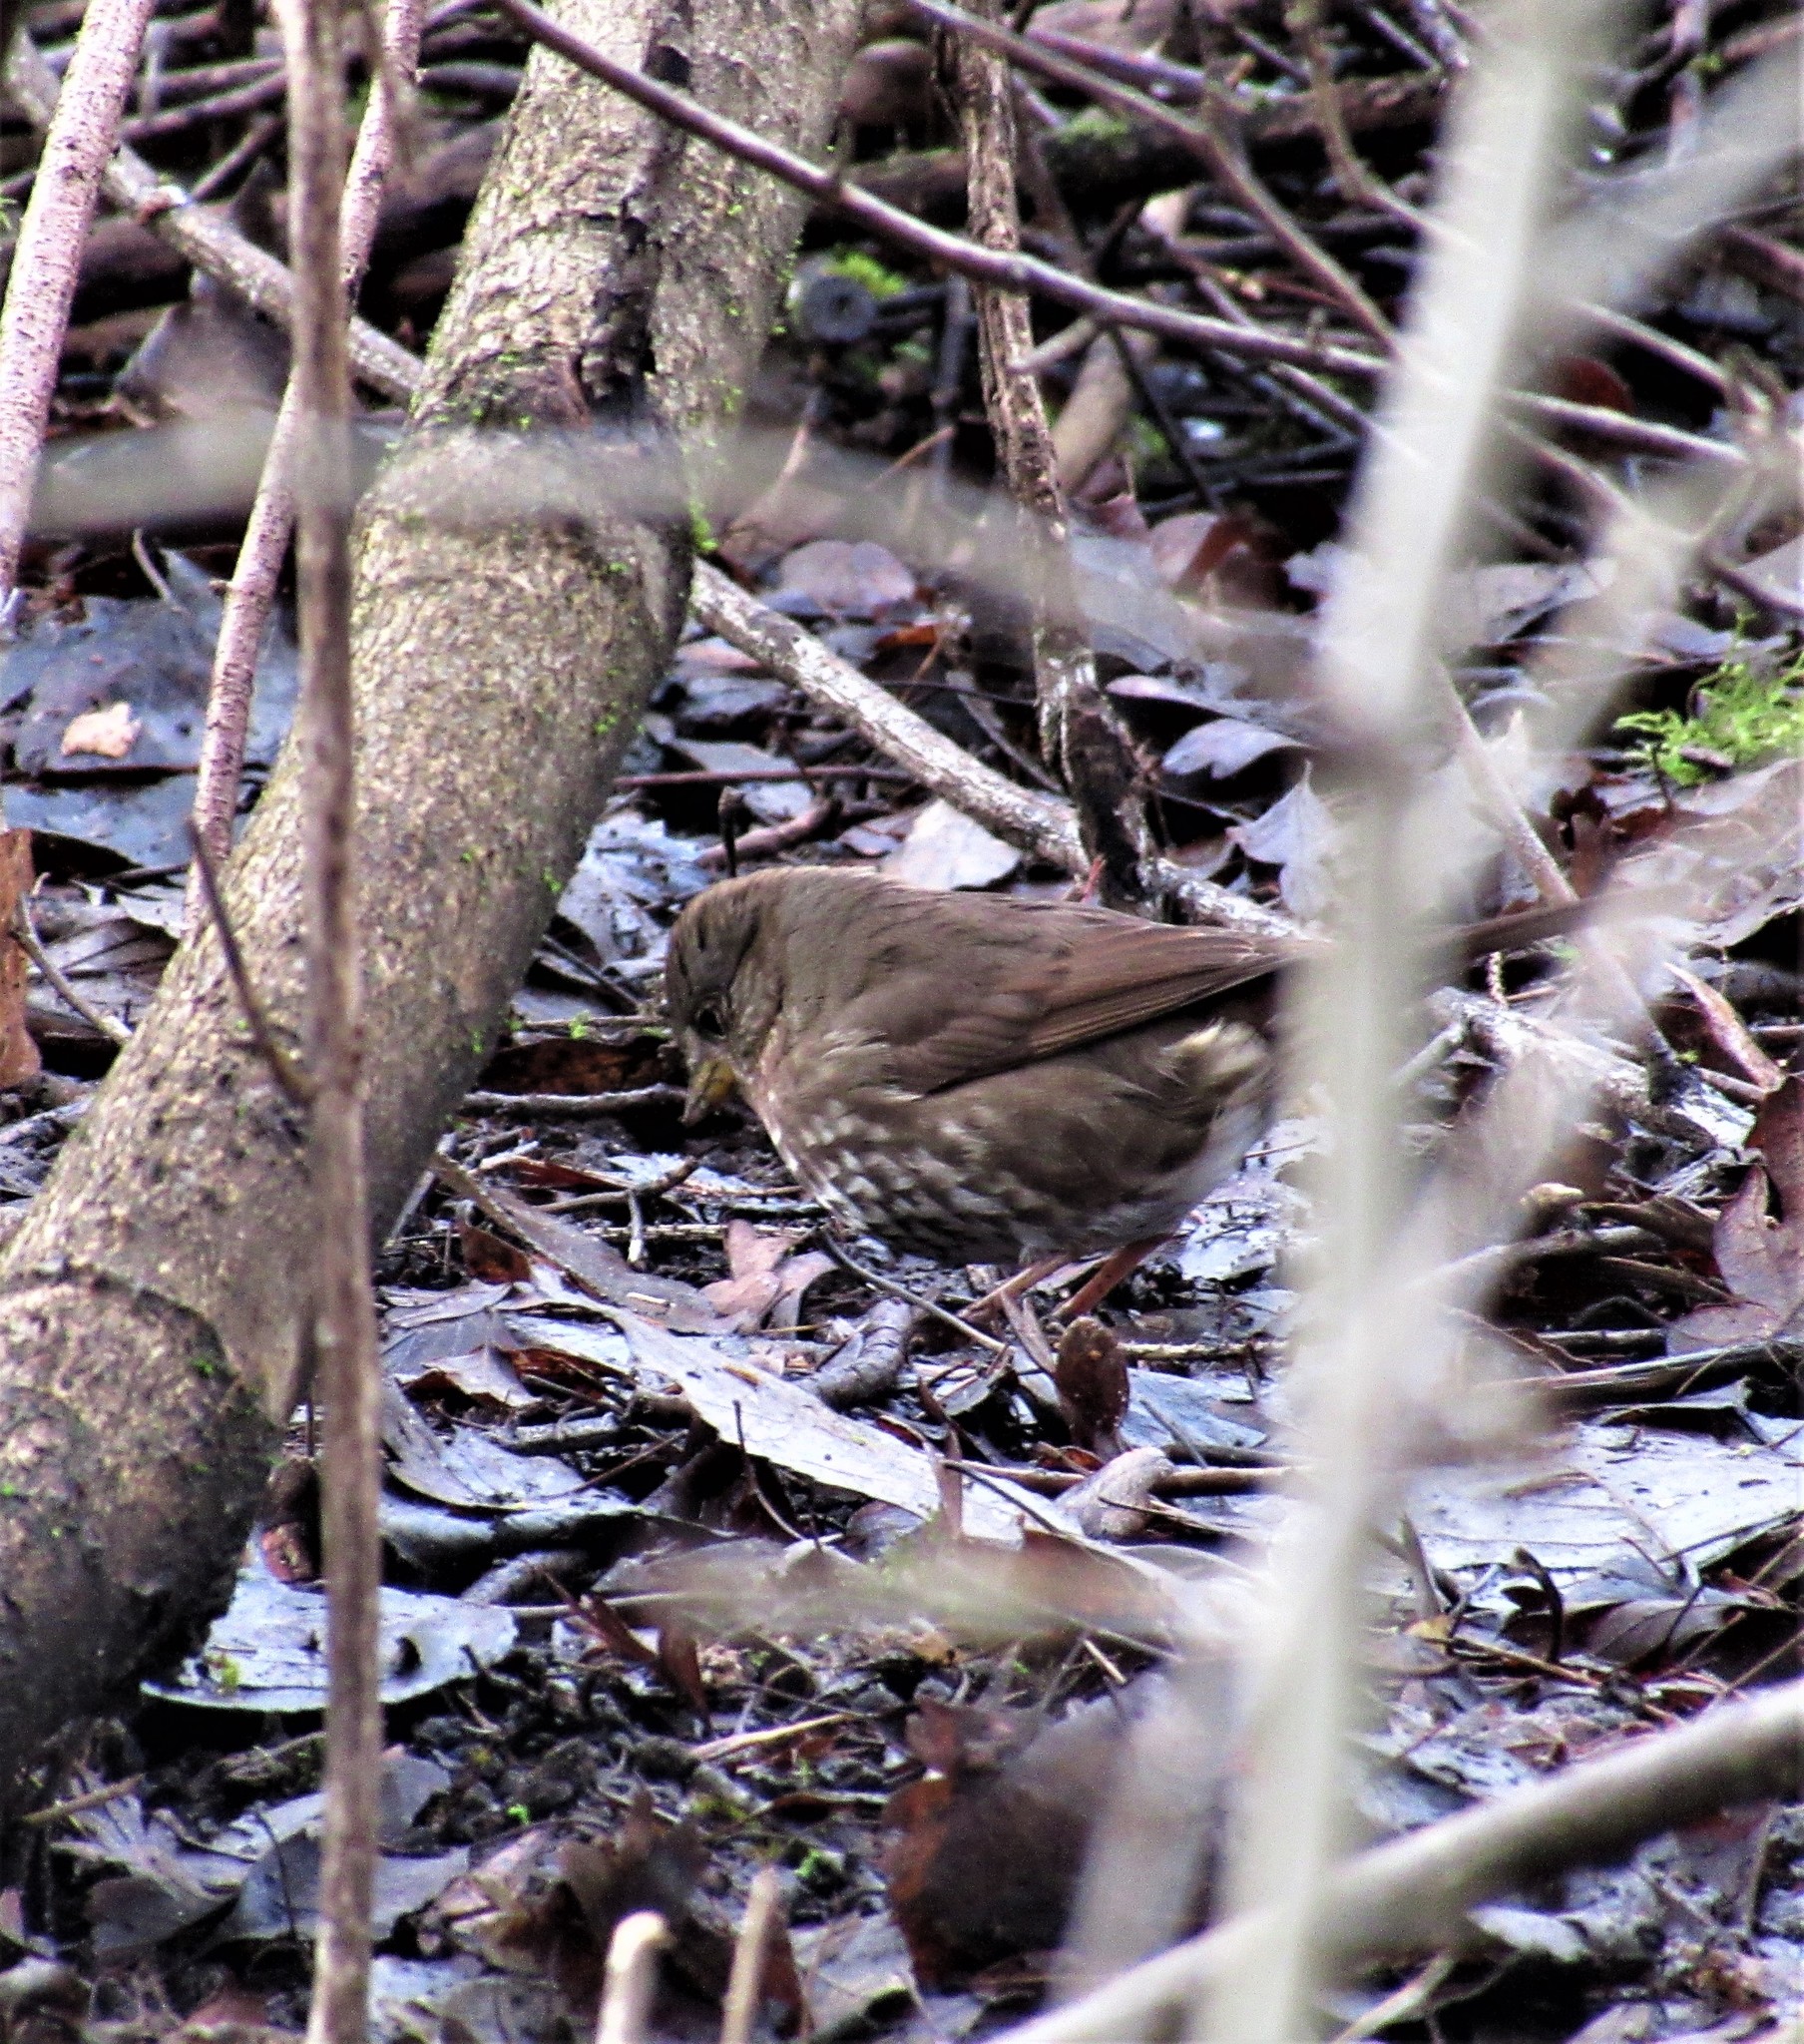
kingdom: Animalia
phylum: Chordata
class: Aves
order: Passeriformes
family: Passerellidae
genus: Passerella
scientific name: Passerella iliaca
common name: Fox sparrow
